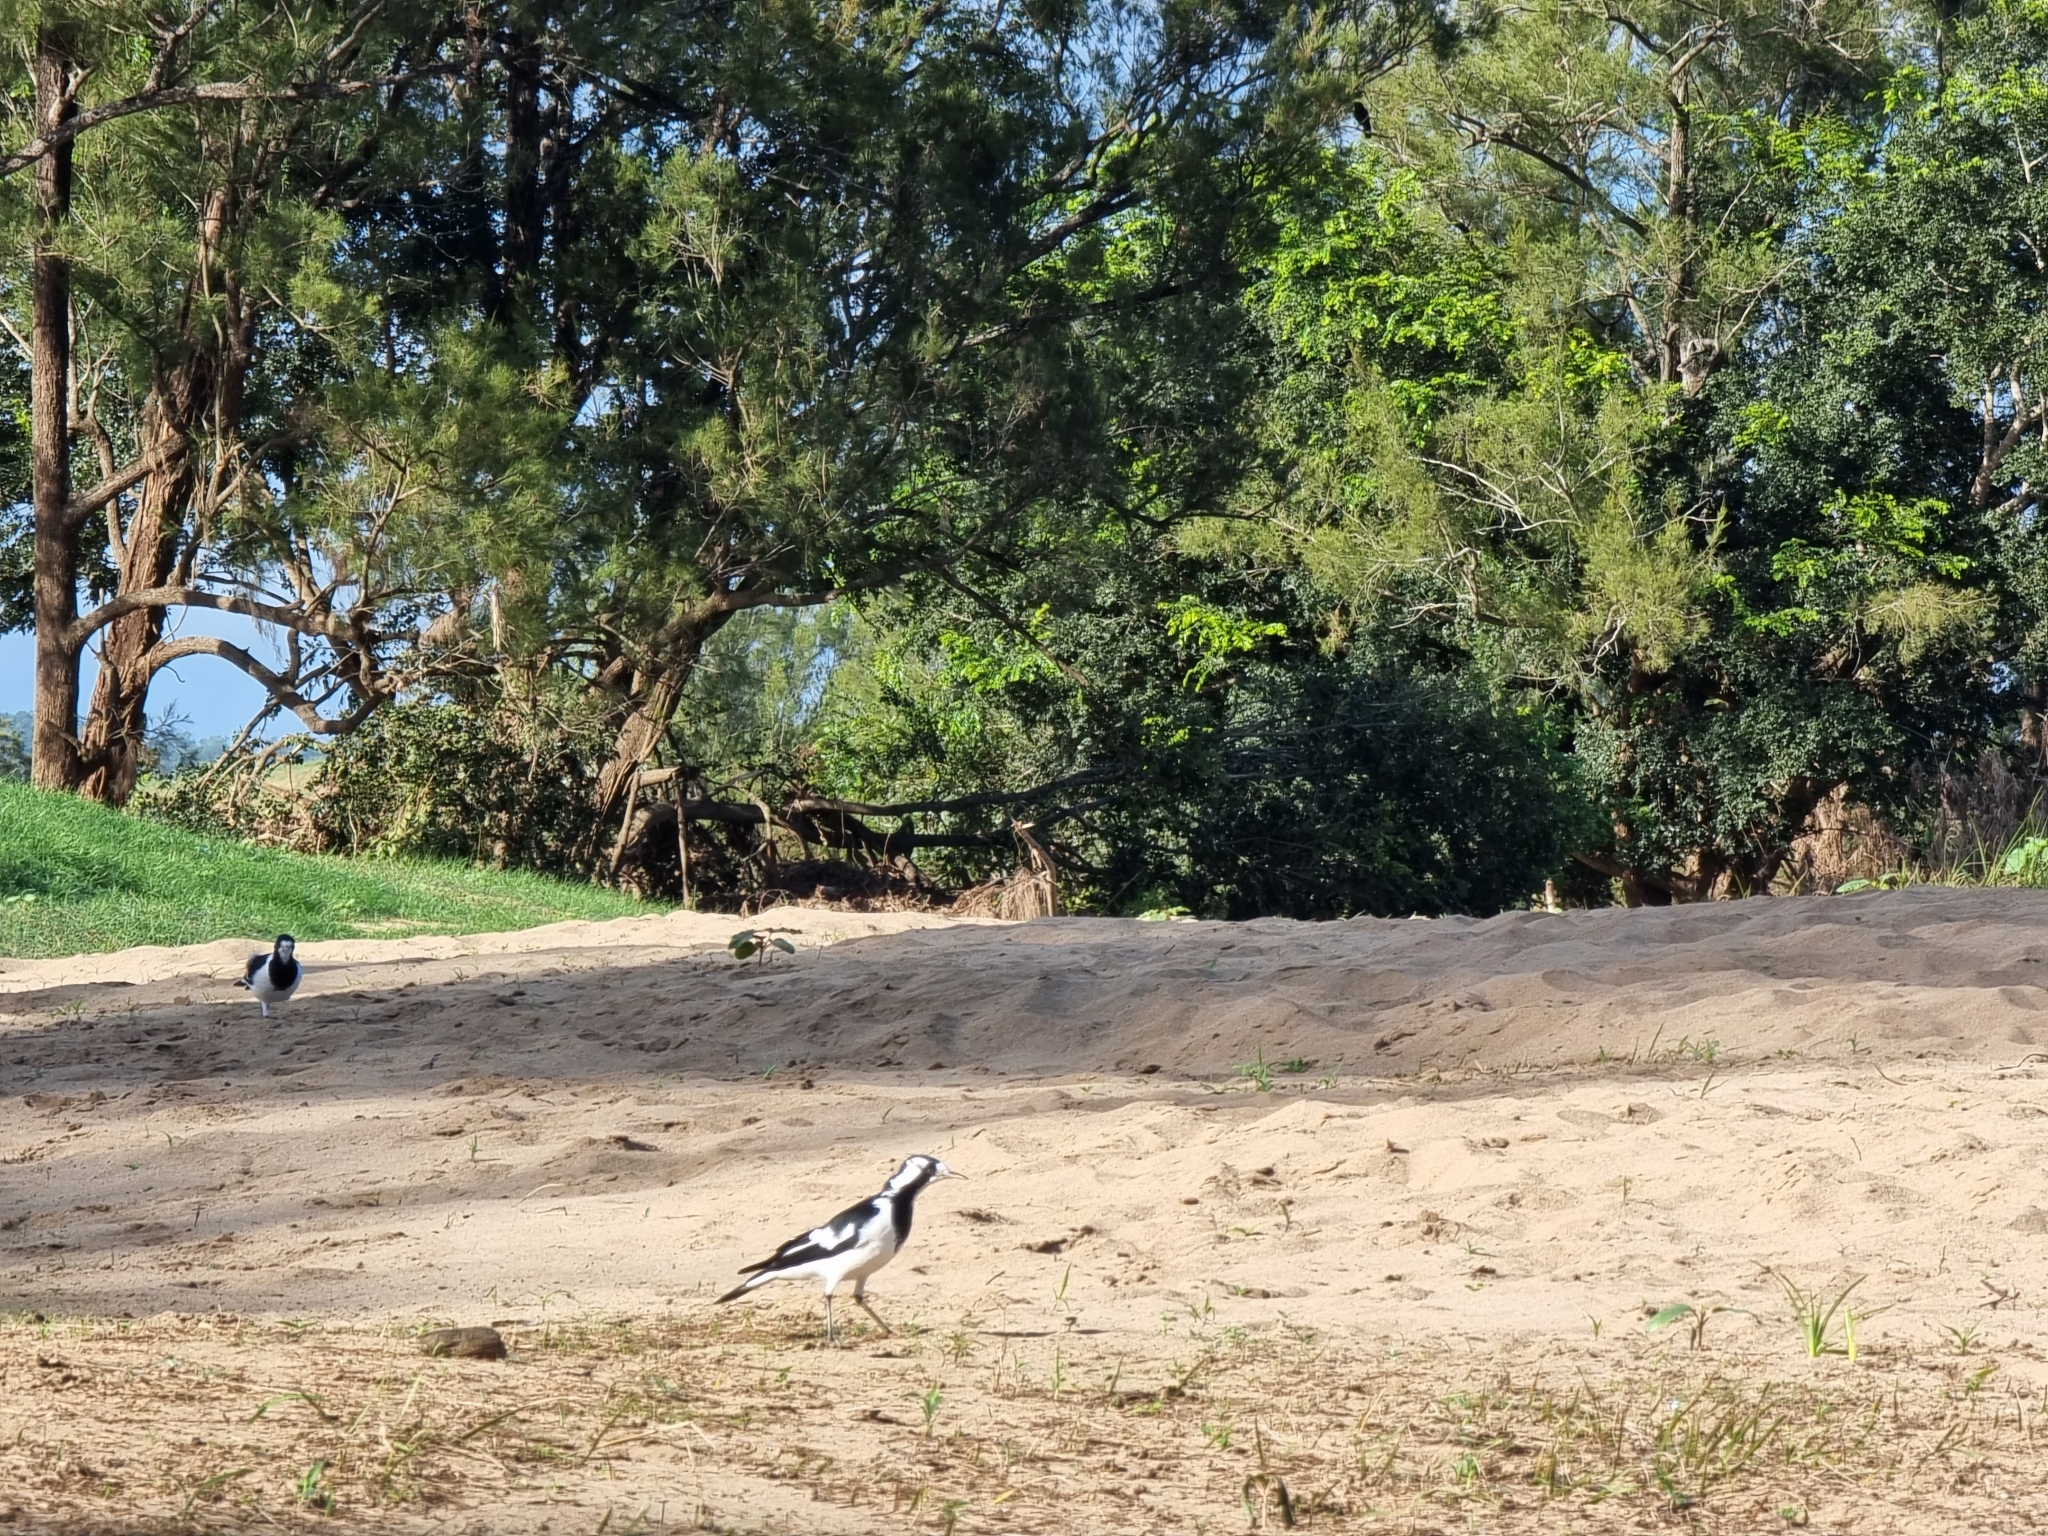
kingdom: Animalia
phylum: Chordata
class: Aves
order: Passeriformes
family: Monarchidae
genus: Grallina
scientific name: Grallina cyanoleuca
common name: Magpie-lark
